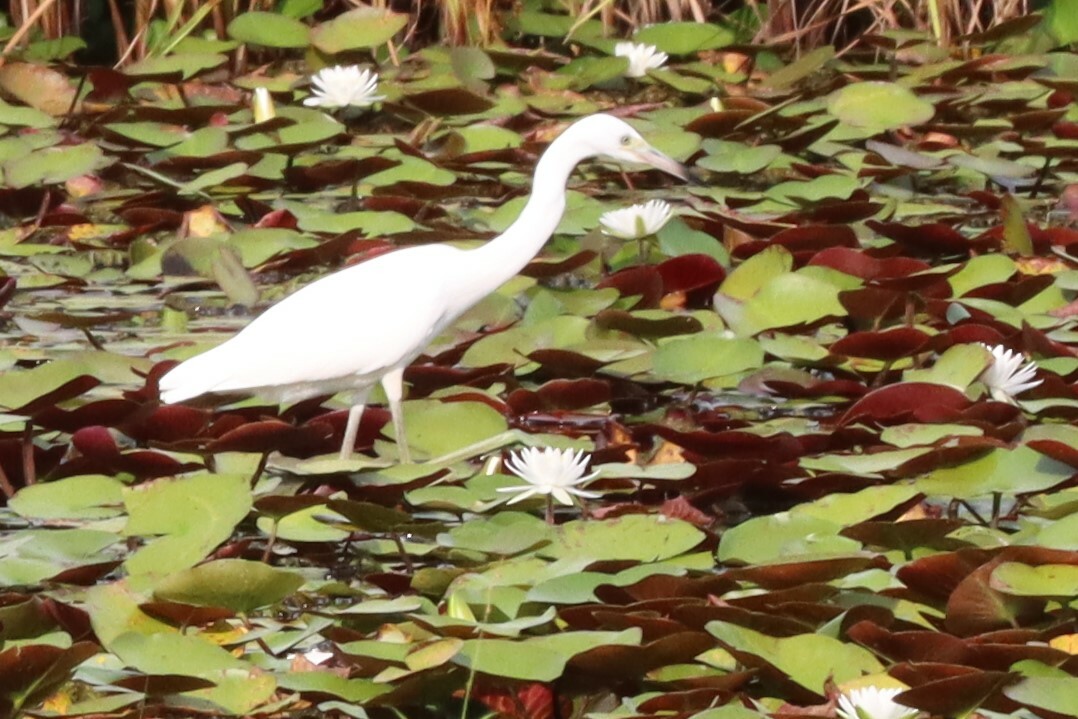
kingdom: Animalia
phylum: Chordata
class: Aves
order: Pelecaniformes
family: Ardeidae
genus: Egretta
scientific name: Egretta caerulea
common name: Little blue heron
